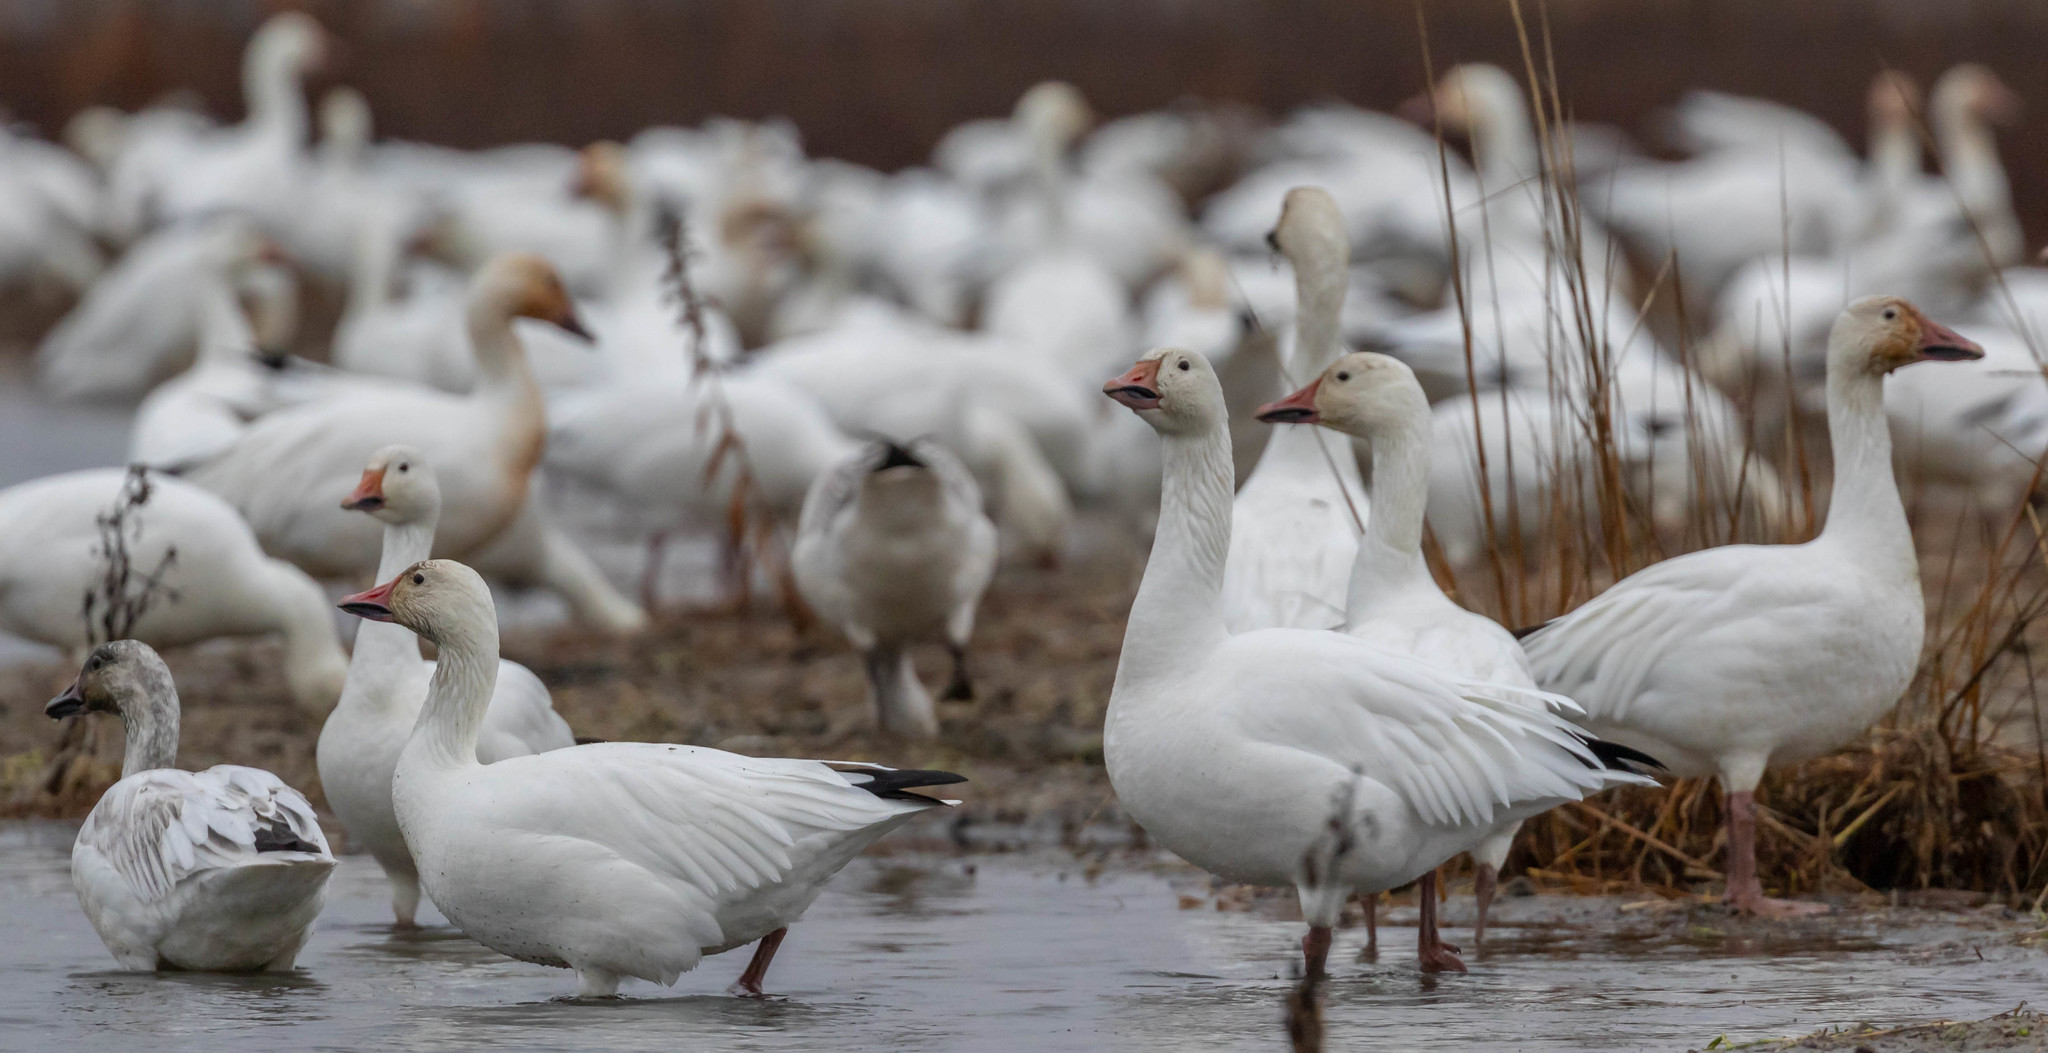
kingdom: Animalia
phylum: Chordata
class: Aves
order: Anseriformes
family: Anatidae
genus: Anser
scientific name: Anser caerulescens
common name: Snow goose
